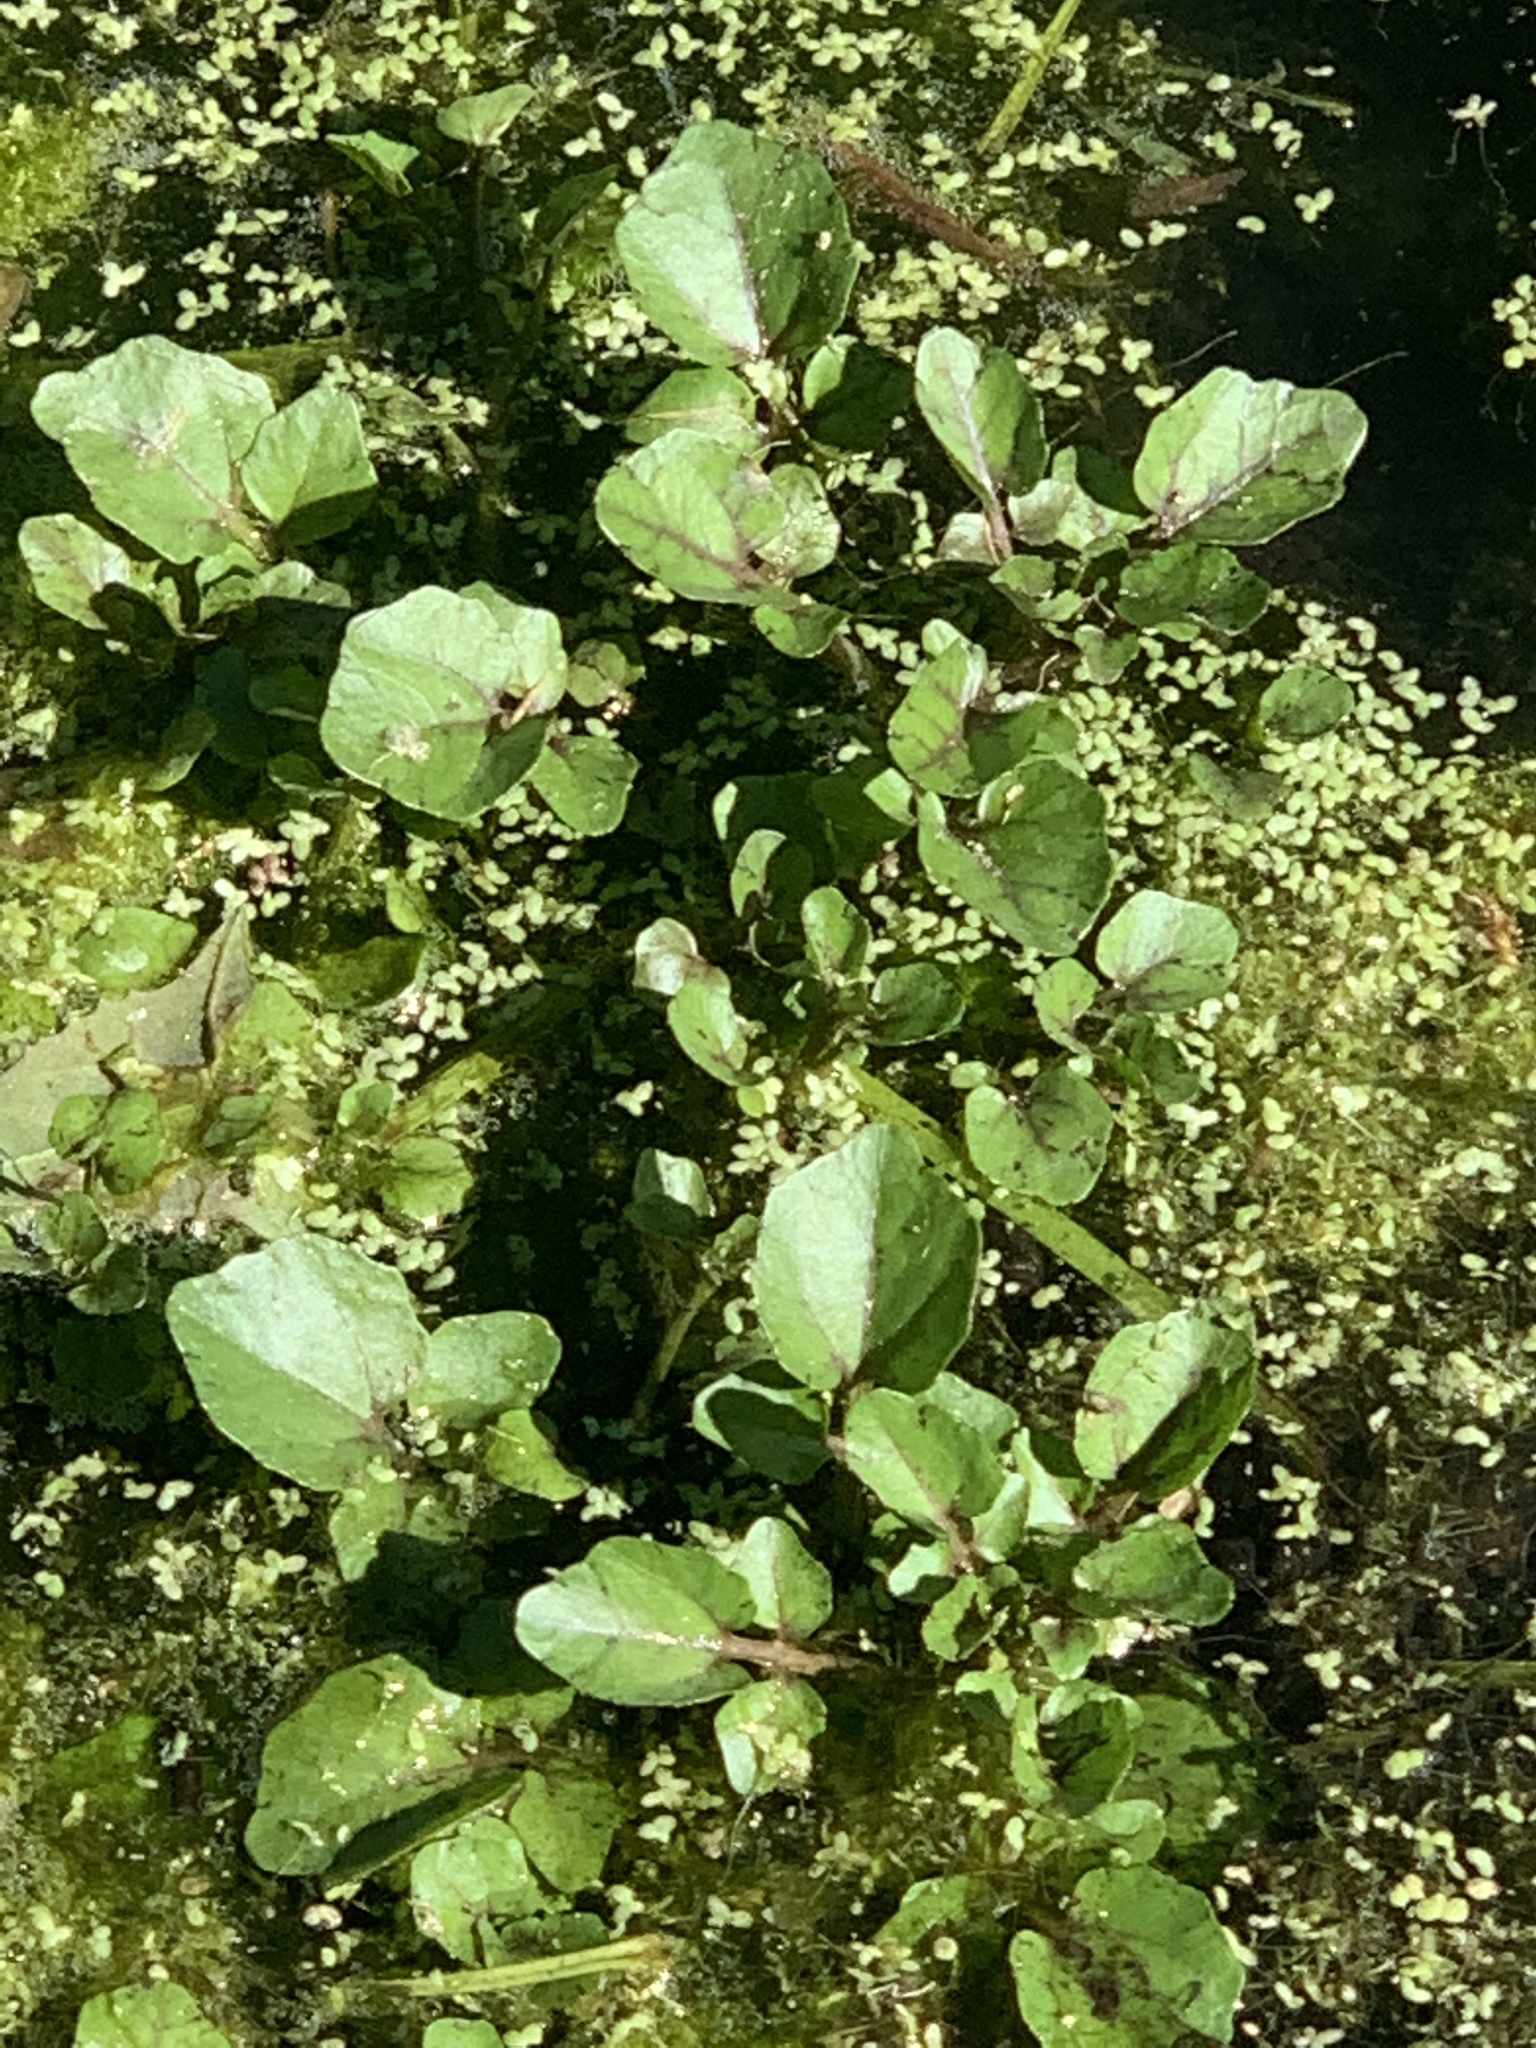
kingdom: Plantae
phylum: Tracheophyta
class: Magnoliopsida
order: Brassicales
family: Brassicaceae
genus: Nasturtium
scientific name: Nasturtium officinale
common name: Watercress
